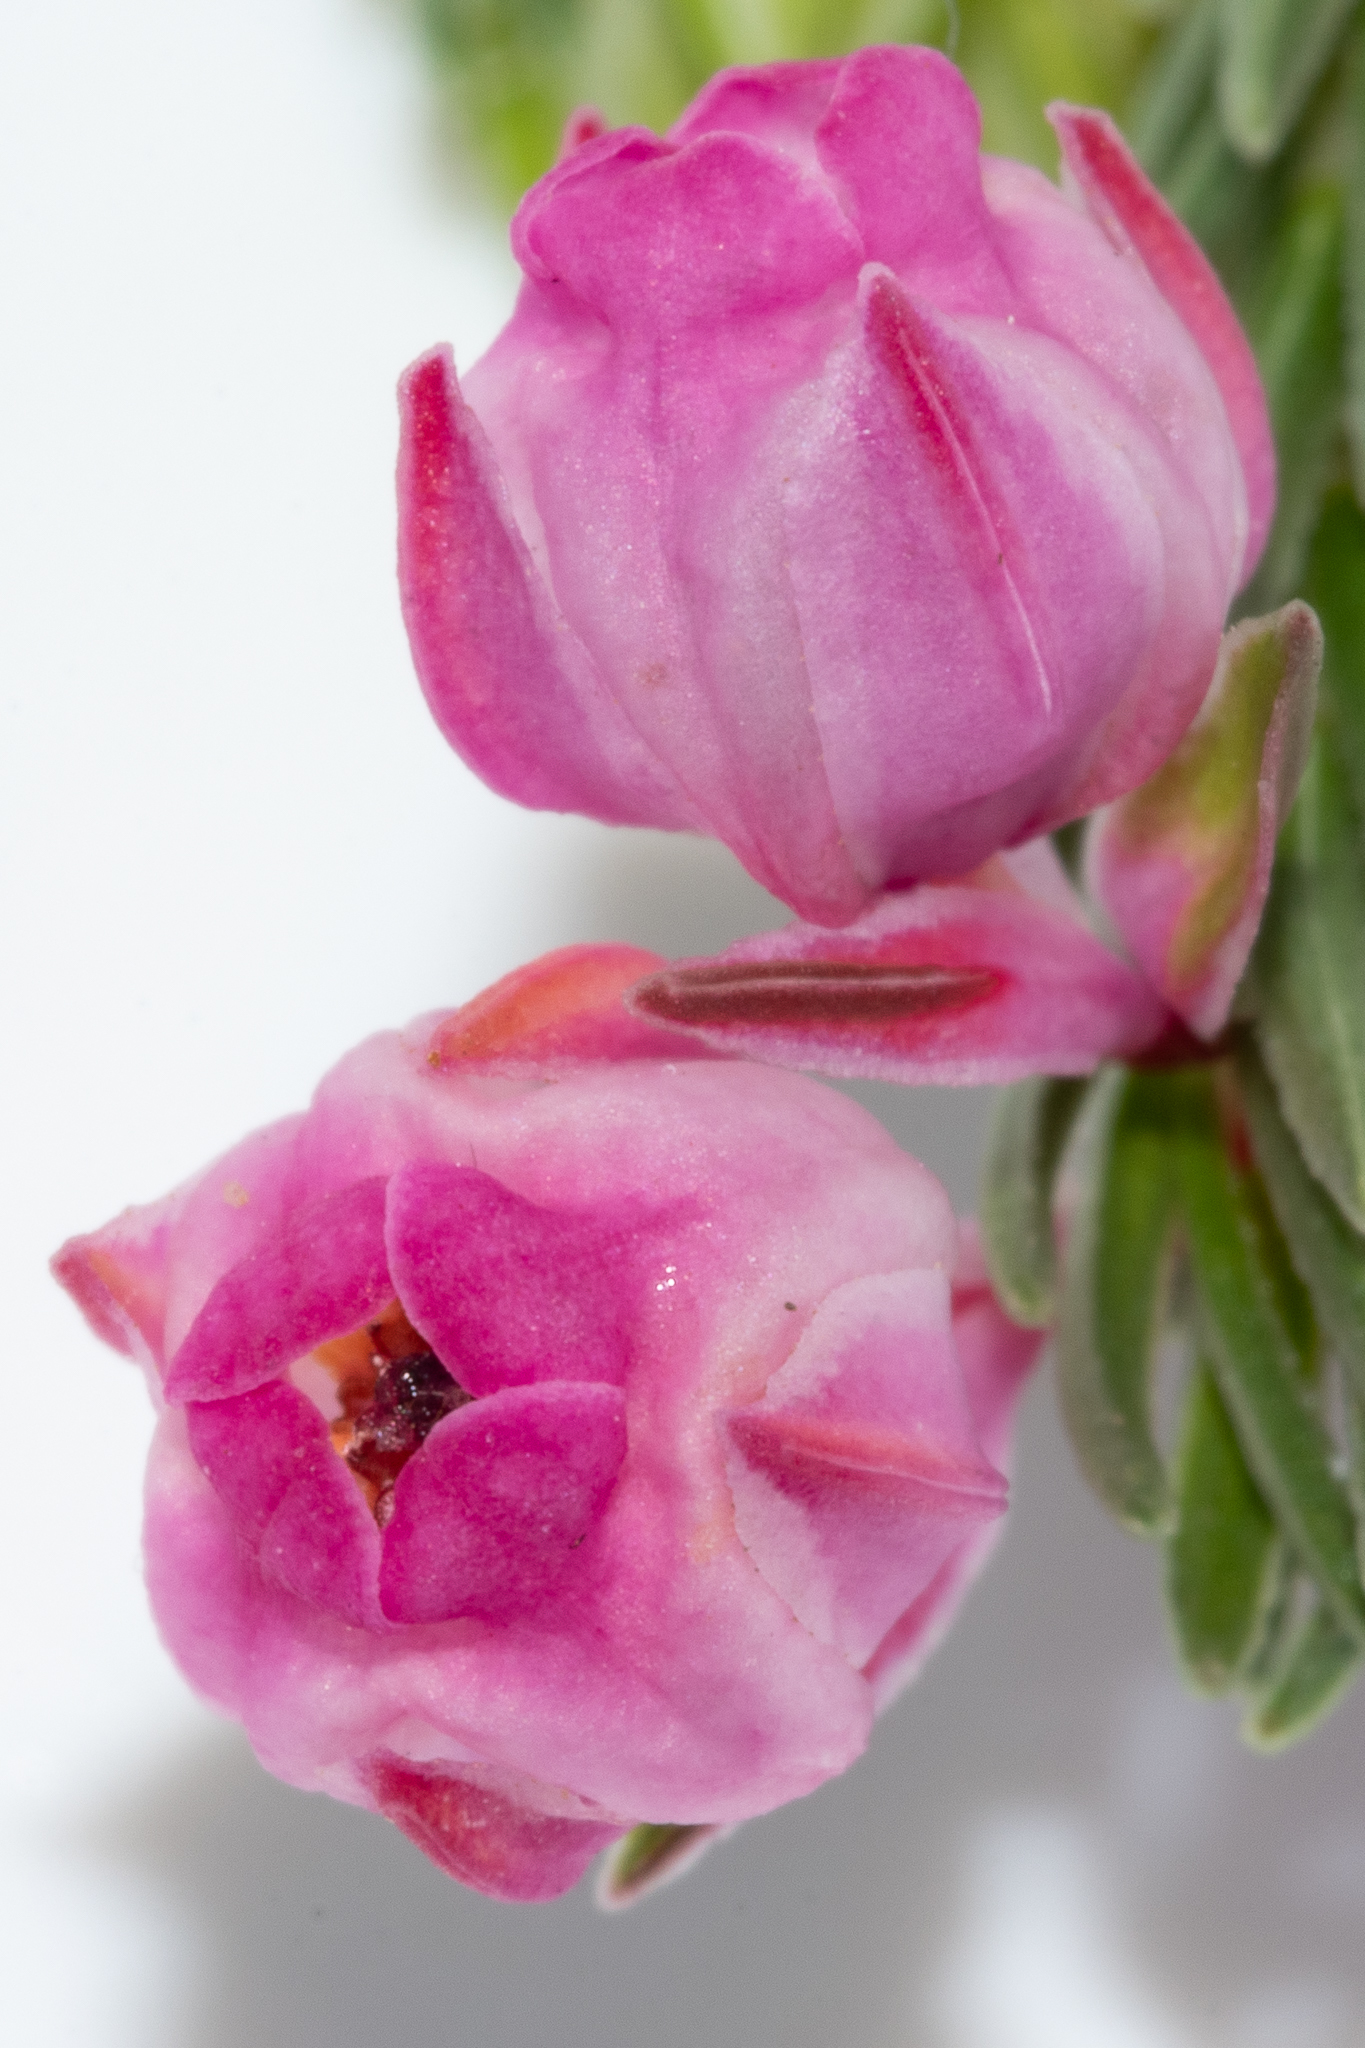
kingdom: Plantae
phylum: Tracheophyta
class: Magnoliopsida
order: Ericales
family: Ericaceae
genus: Erica
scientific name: Erica baccans
